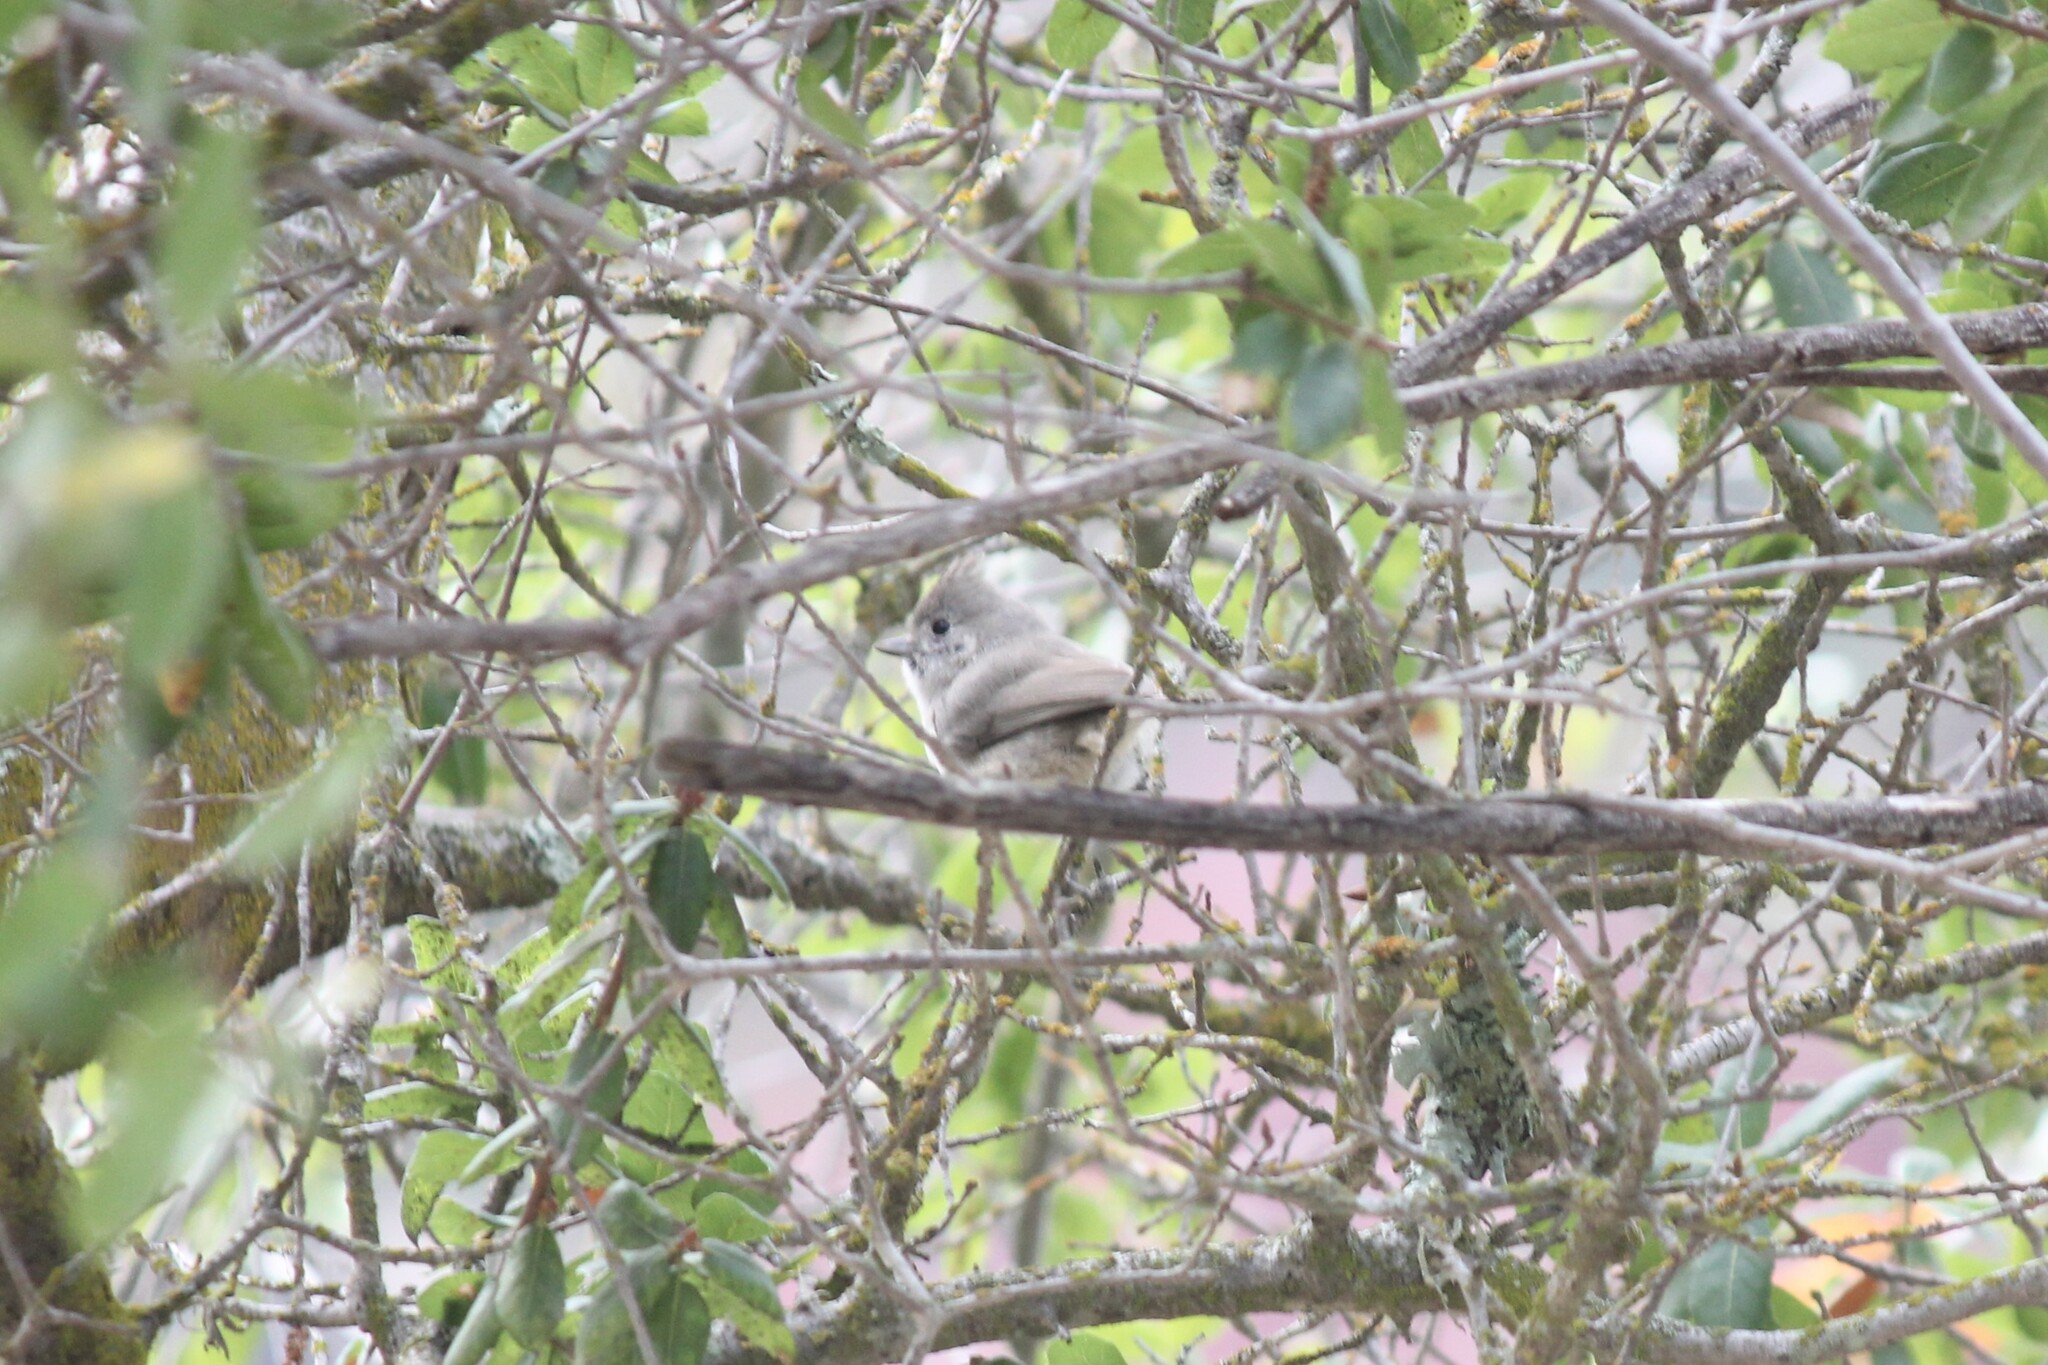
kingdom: Animalia
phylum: Chordata
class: Aves
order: Passeriformes
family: Paridae
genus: Baeolophus
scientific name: Baeolophus inornatus
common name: Oak titmouse
